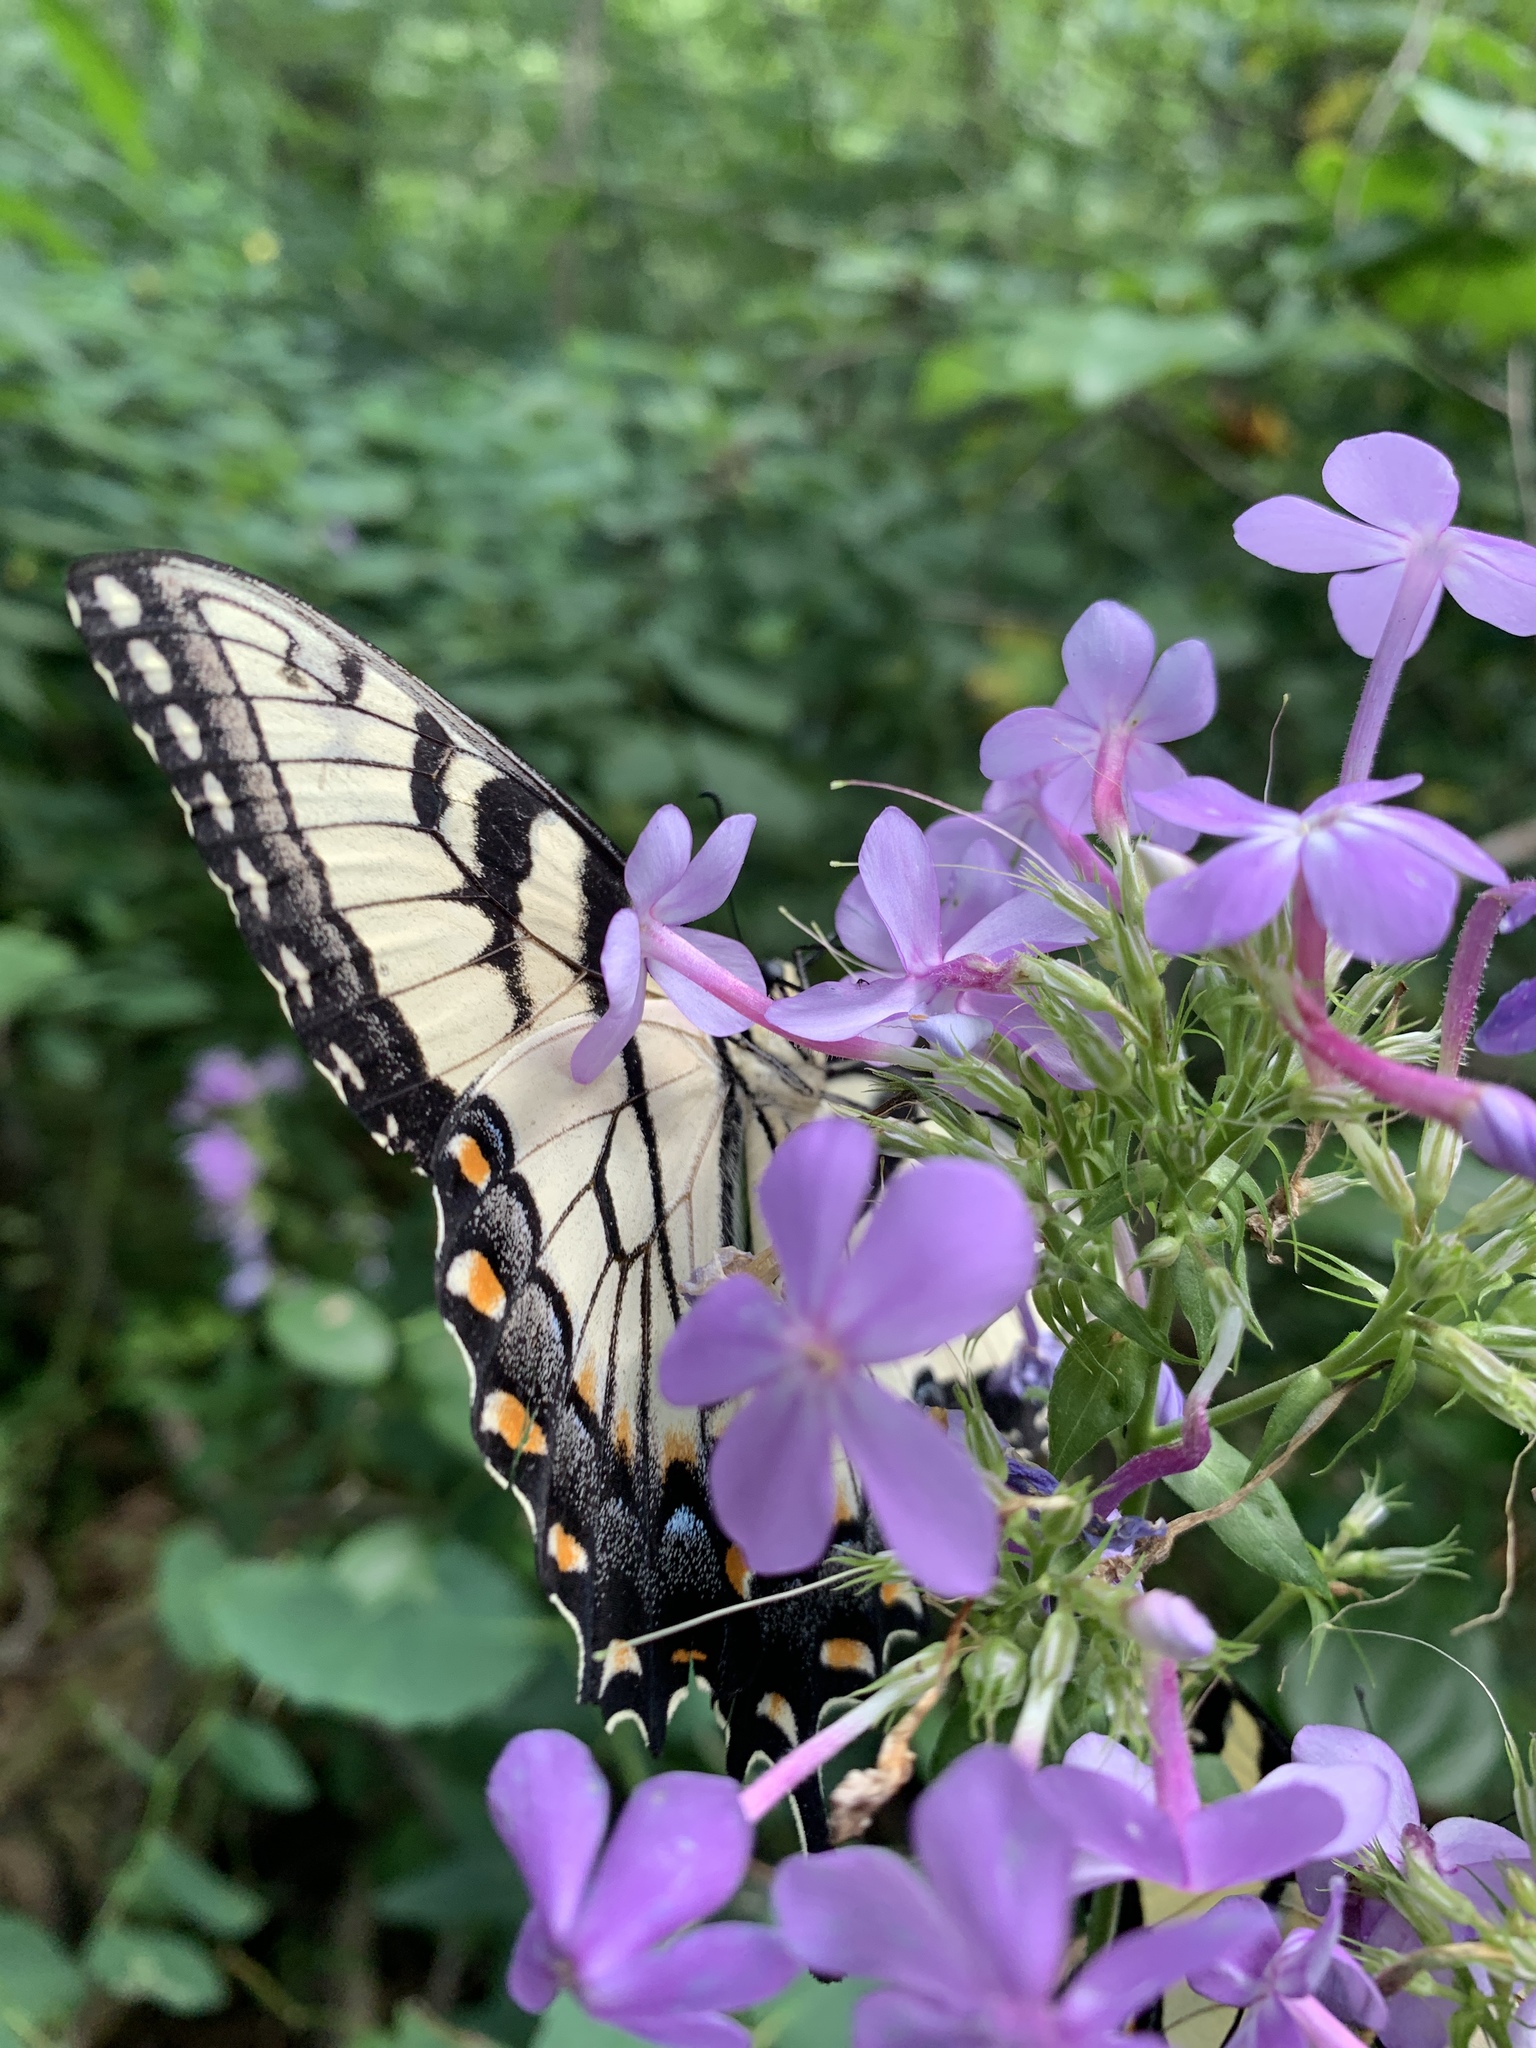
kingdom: Plantae
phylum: Tracheophyta
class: Magnoliopsida
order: Ericales
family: Polemoniaceae
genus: Phlox
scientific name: Phlox paniculata
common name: Fall phlox
